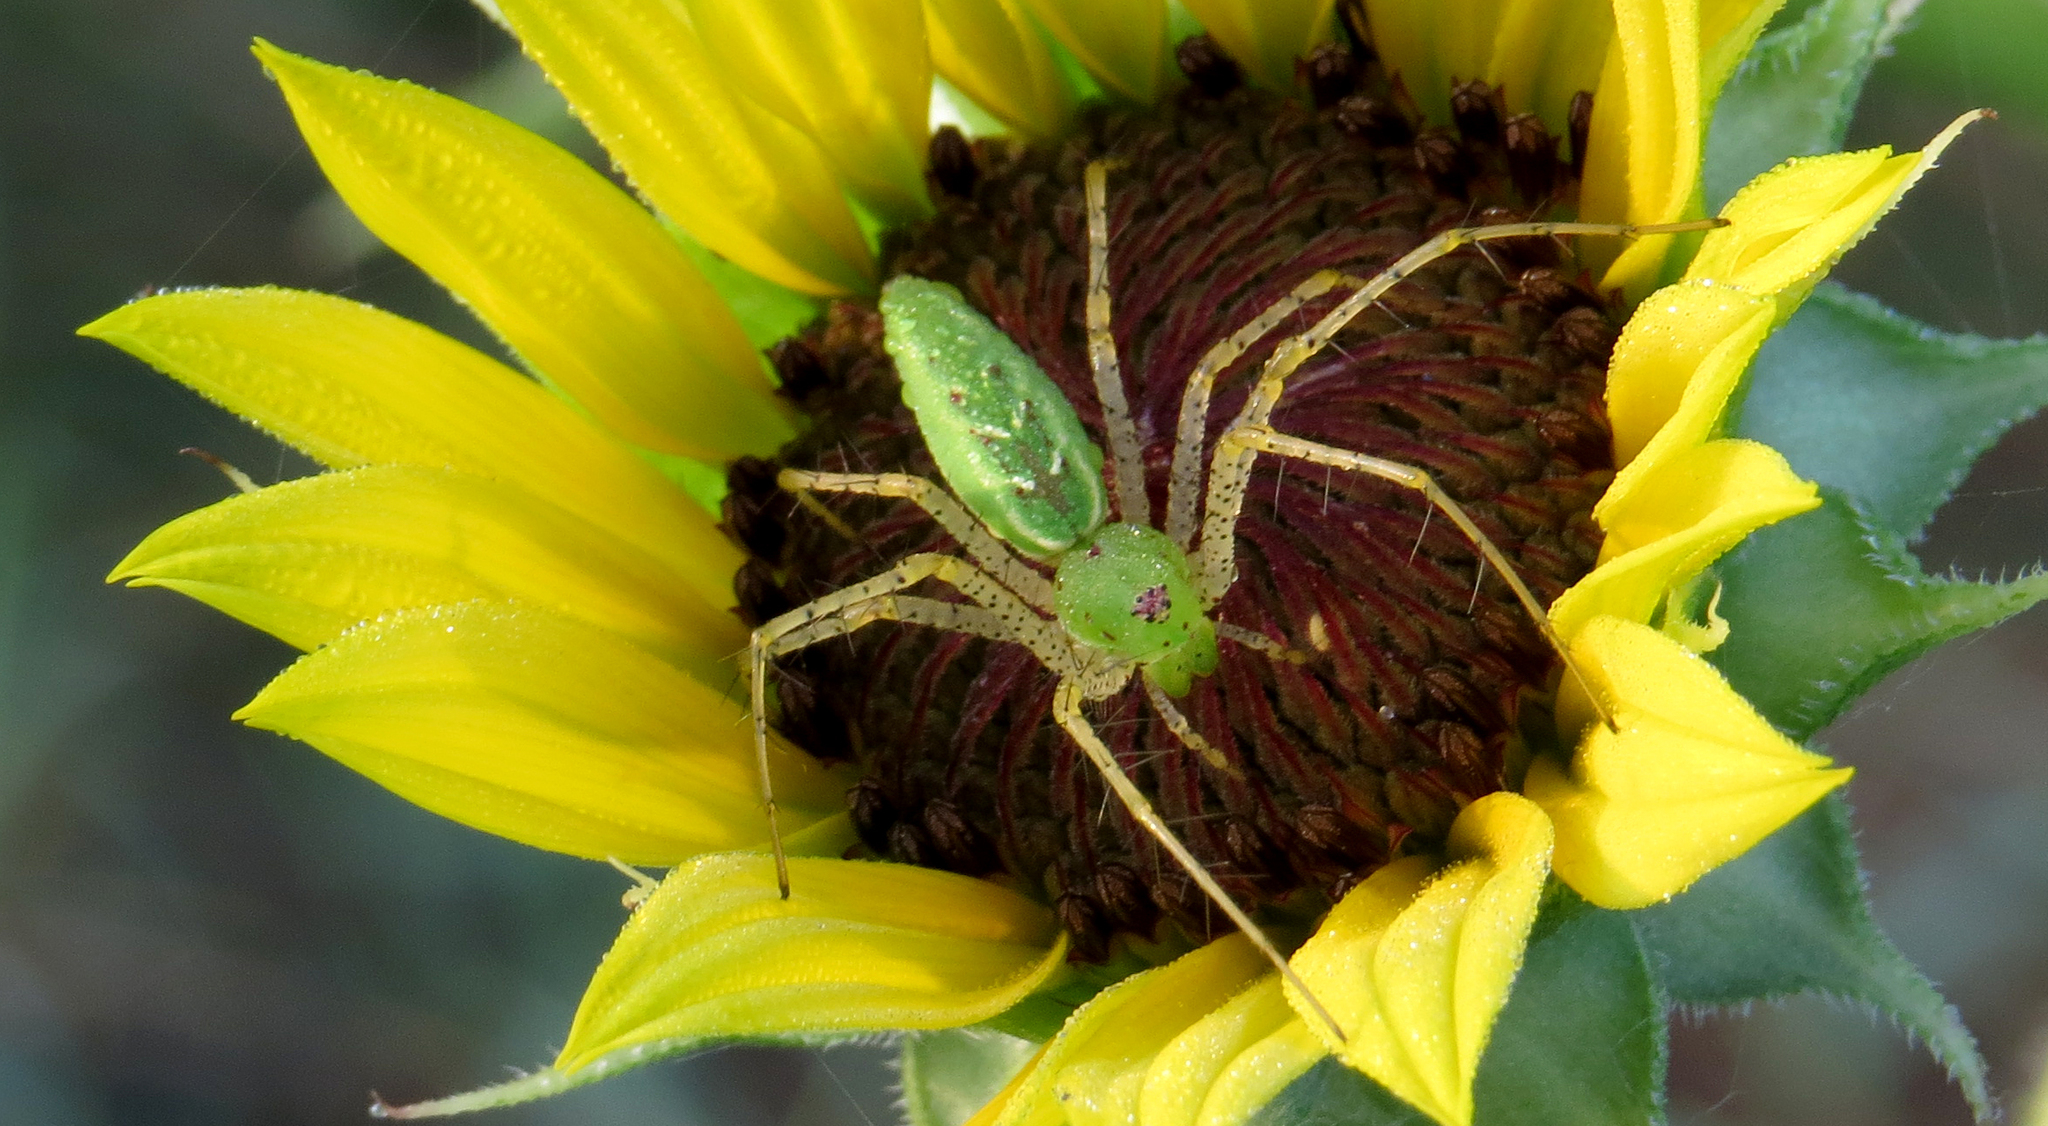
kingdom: Animalia
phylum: Arthropoda
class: Arachnida
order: Araneae
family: Oxyopidae
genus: Peucetia
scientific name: Peucetia viridans
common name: Lynx spiders
